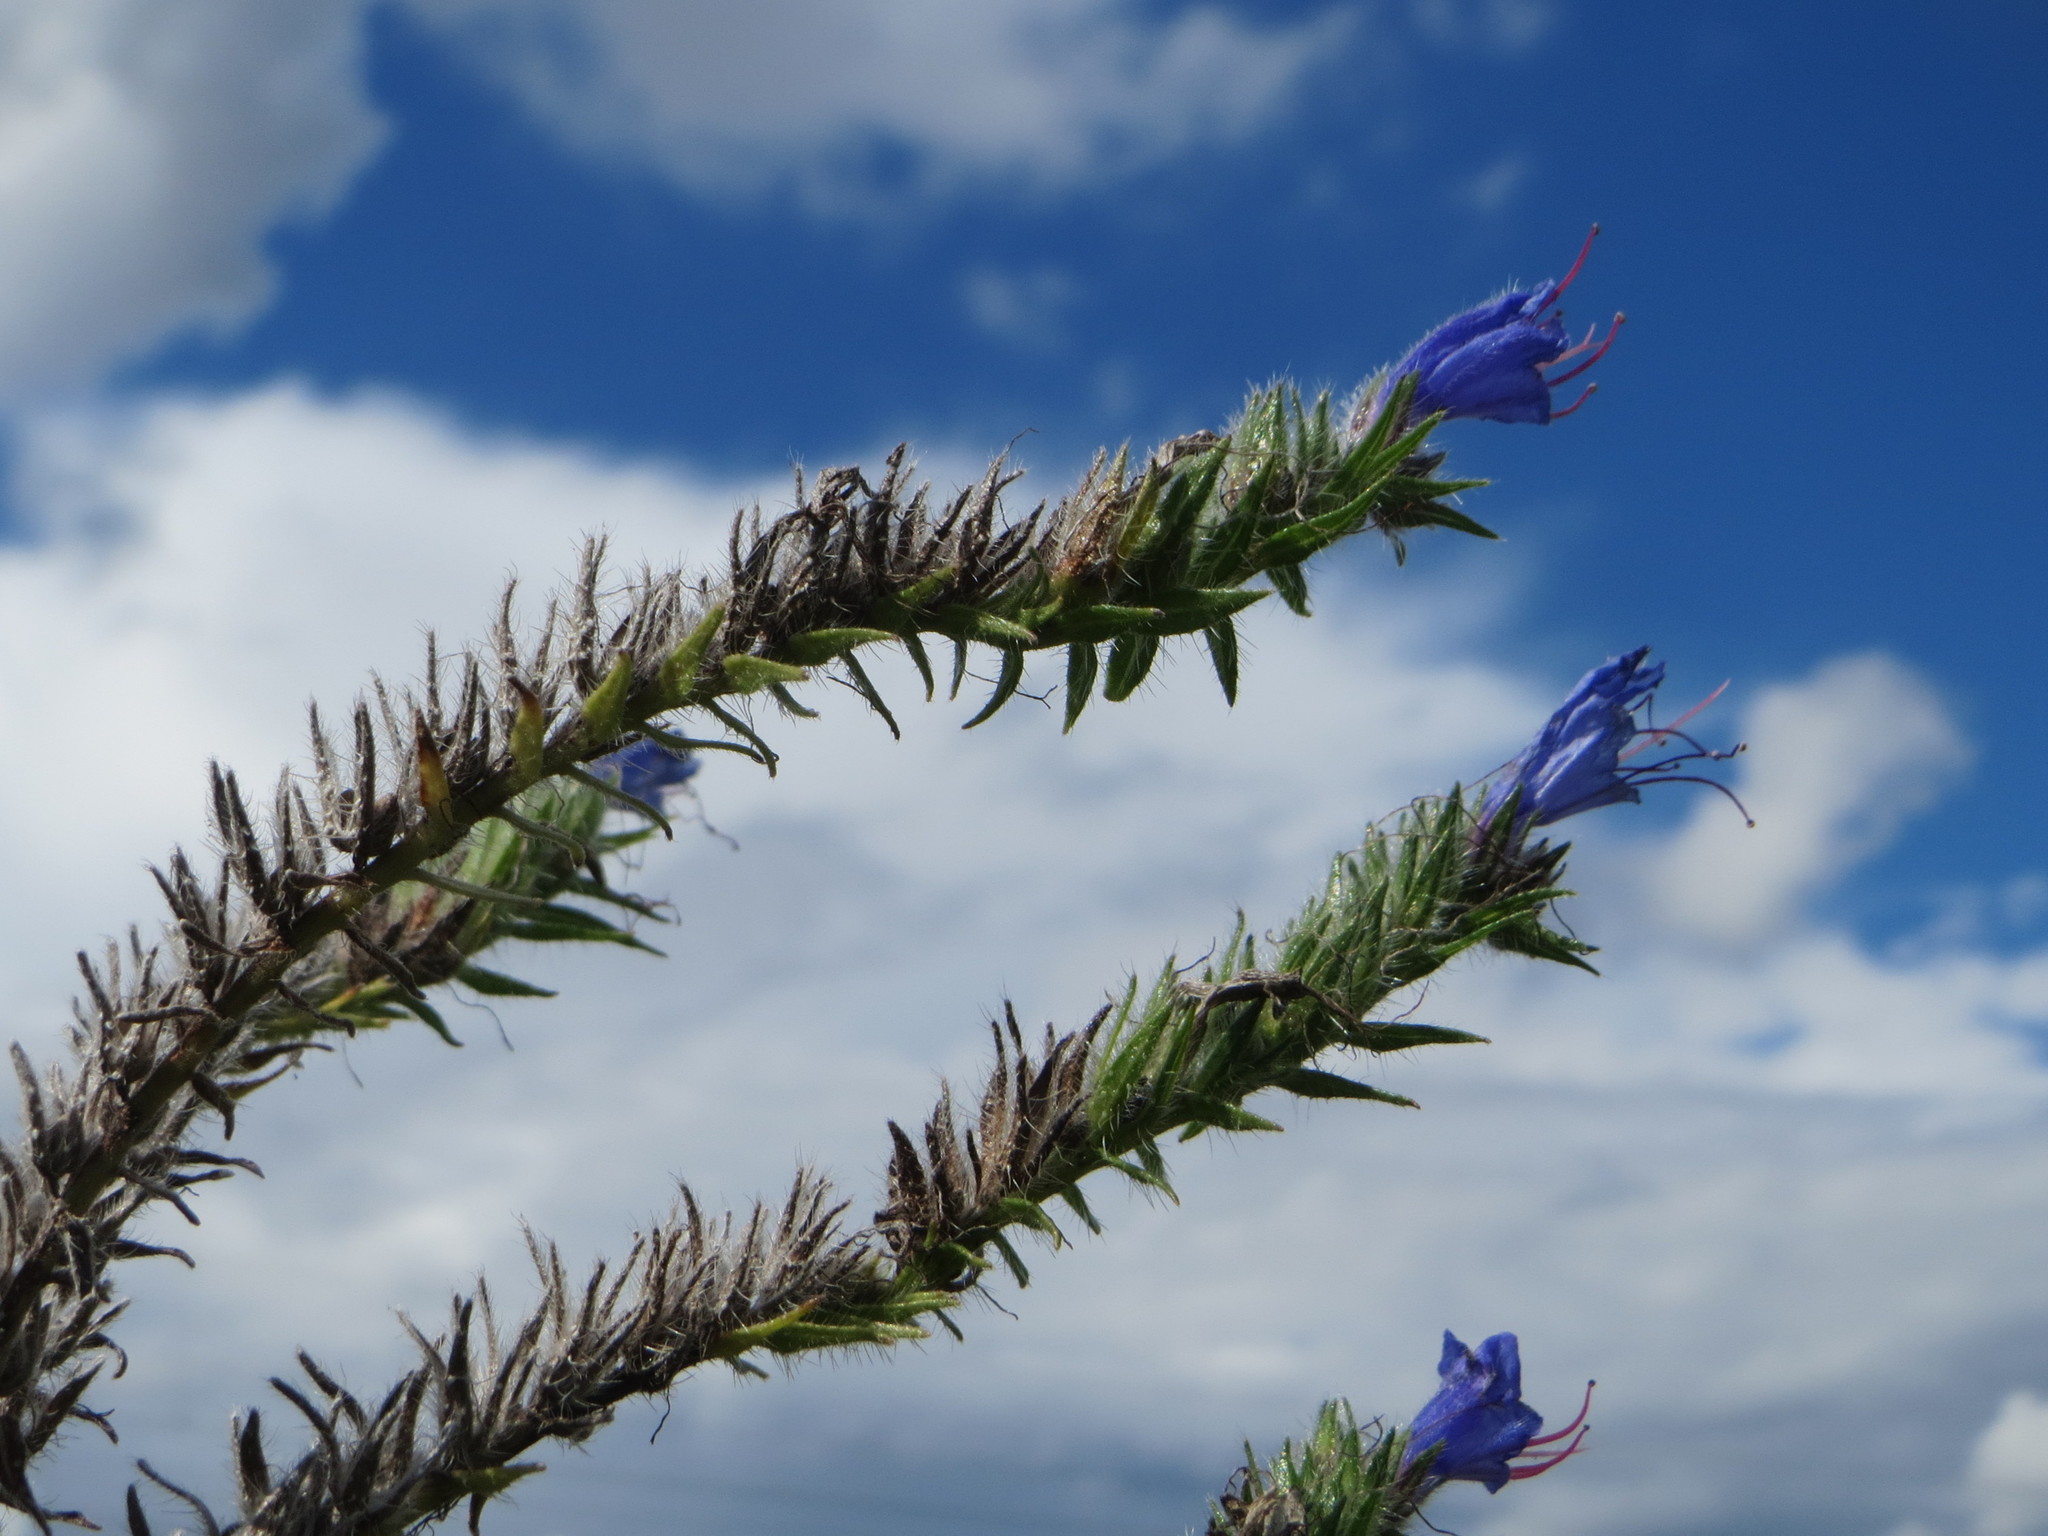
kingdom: Plantae
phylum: Tracheophyta
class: Magnoliopsida
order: Boraginales
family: Boraginaceae
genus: Echium
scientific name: Echium vulgare
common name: Common viper's bugloss
